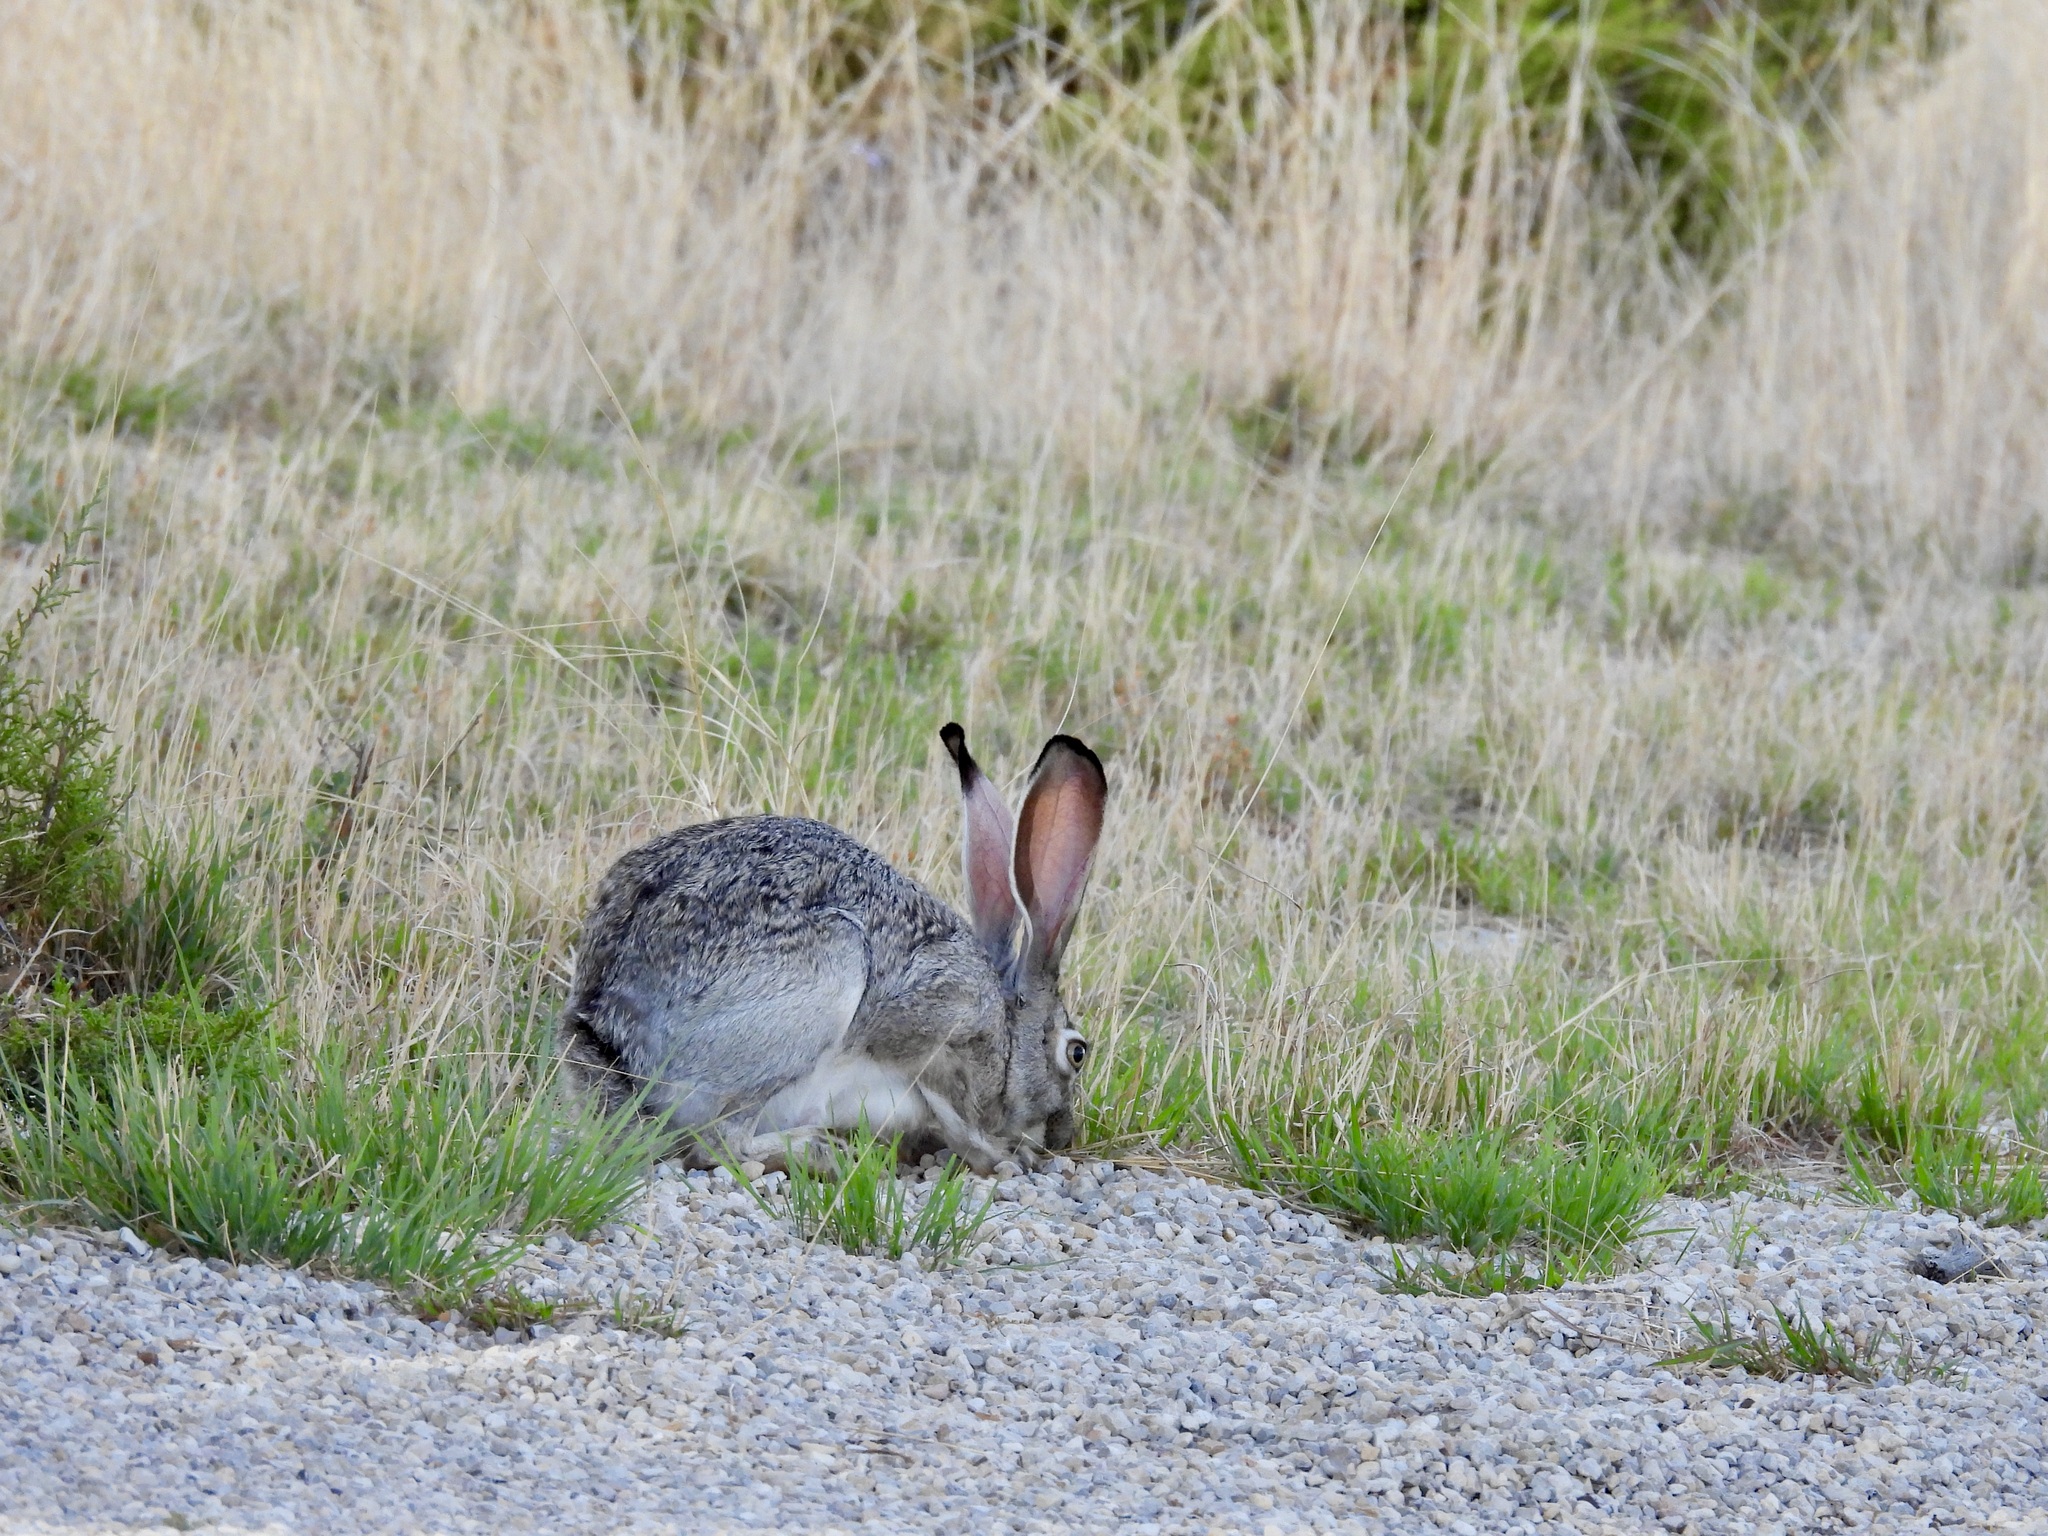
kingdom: Animalia
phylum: Chordata
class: Mammalia
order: Lagomorpha
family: Leporidae
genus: Lepus
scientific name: Lepus californicus
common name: Black-tailed jackrabbit
